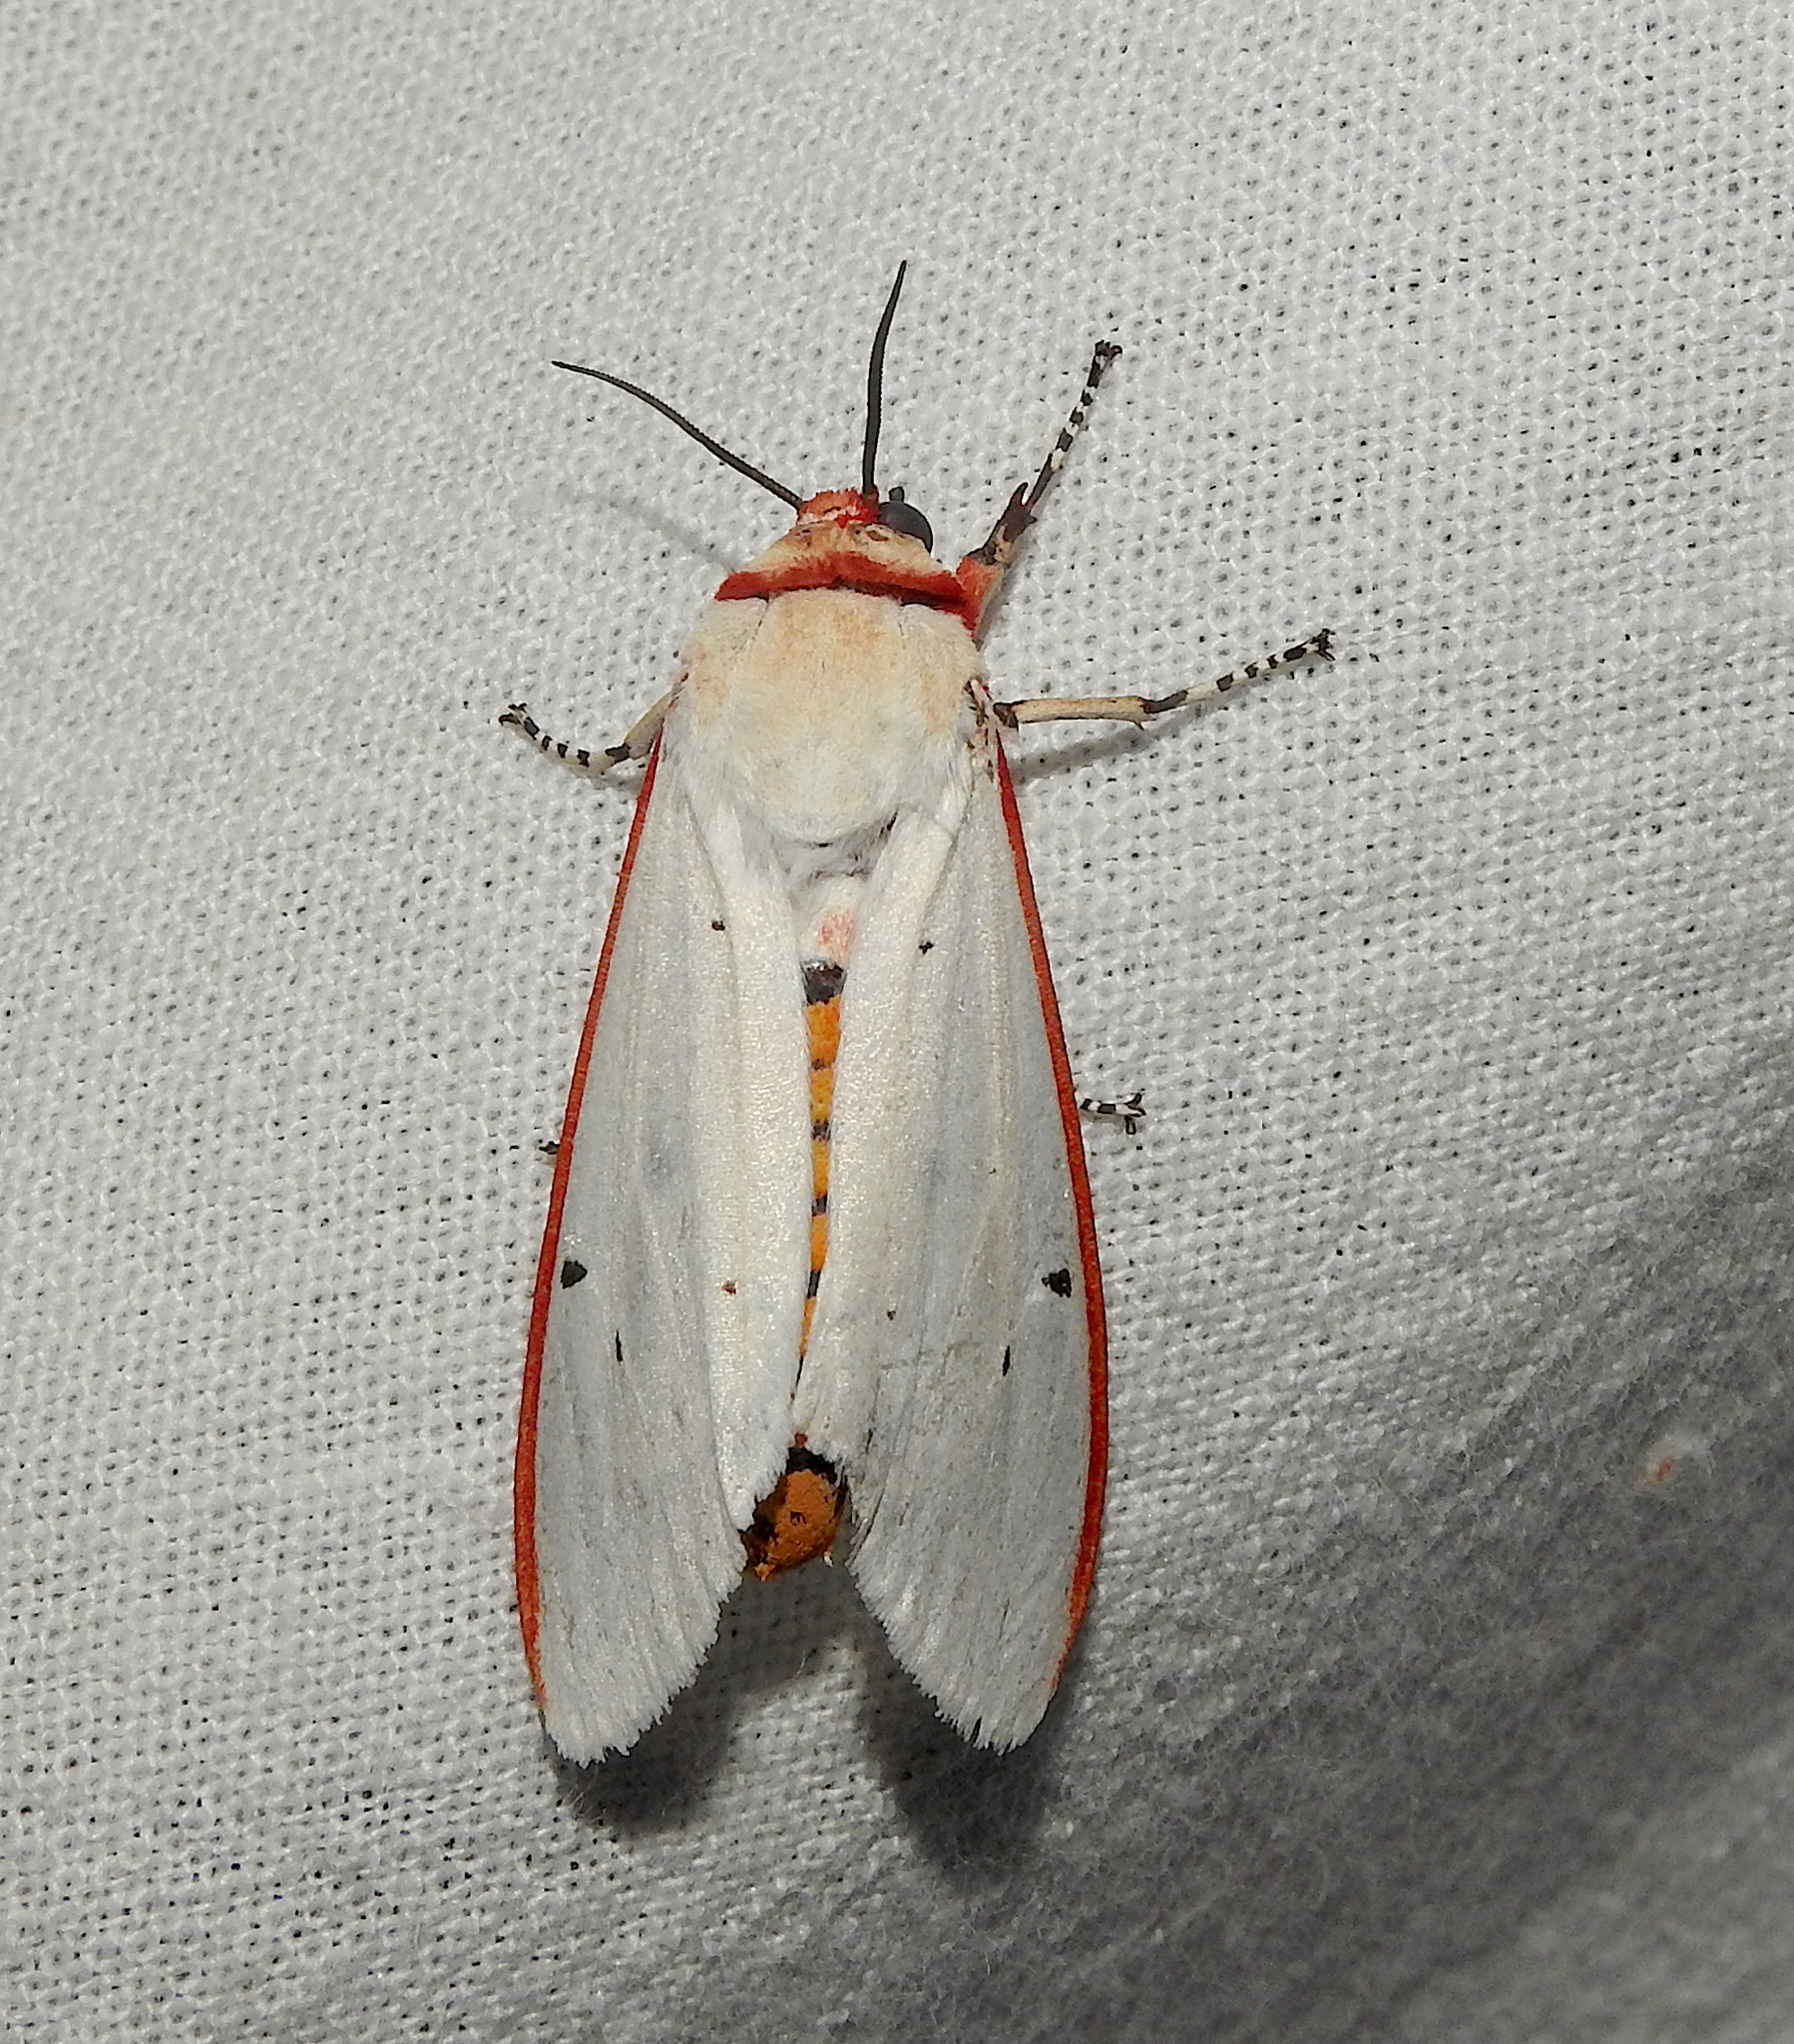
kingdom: Animalia
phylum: Arthropoda
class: Insecta
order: Lepidoptera
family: Erebidae
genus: Aloa
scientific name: Aloa lactinea
